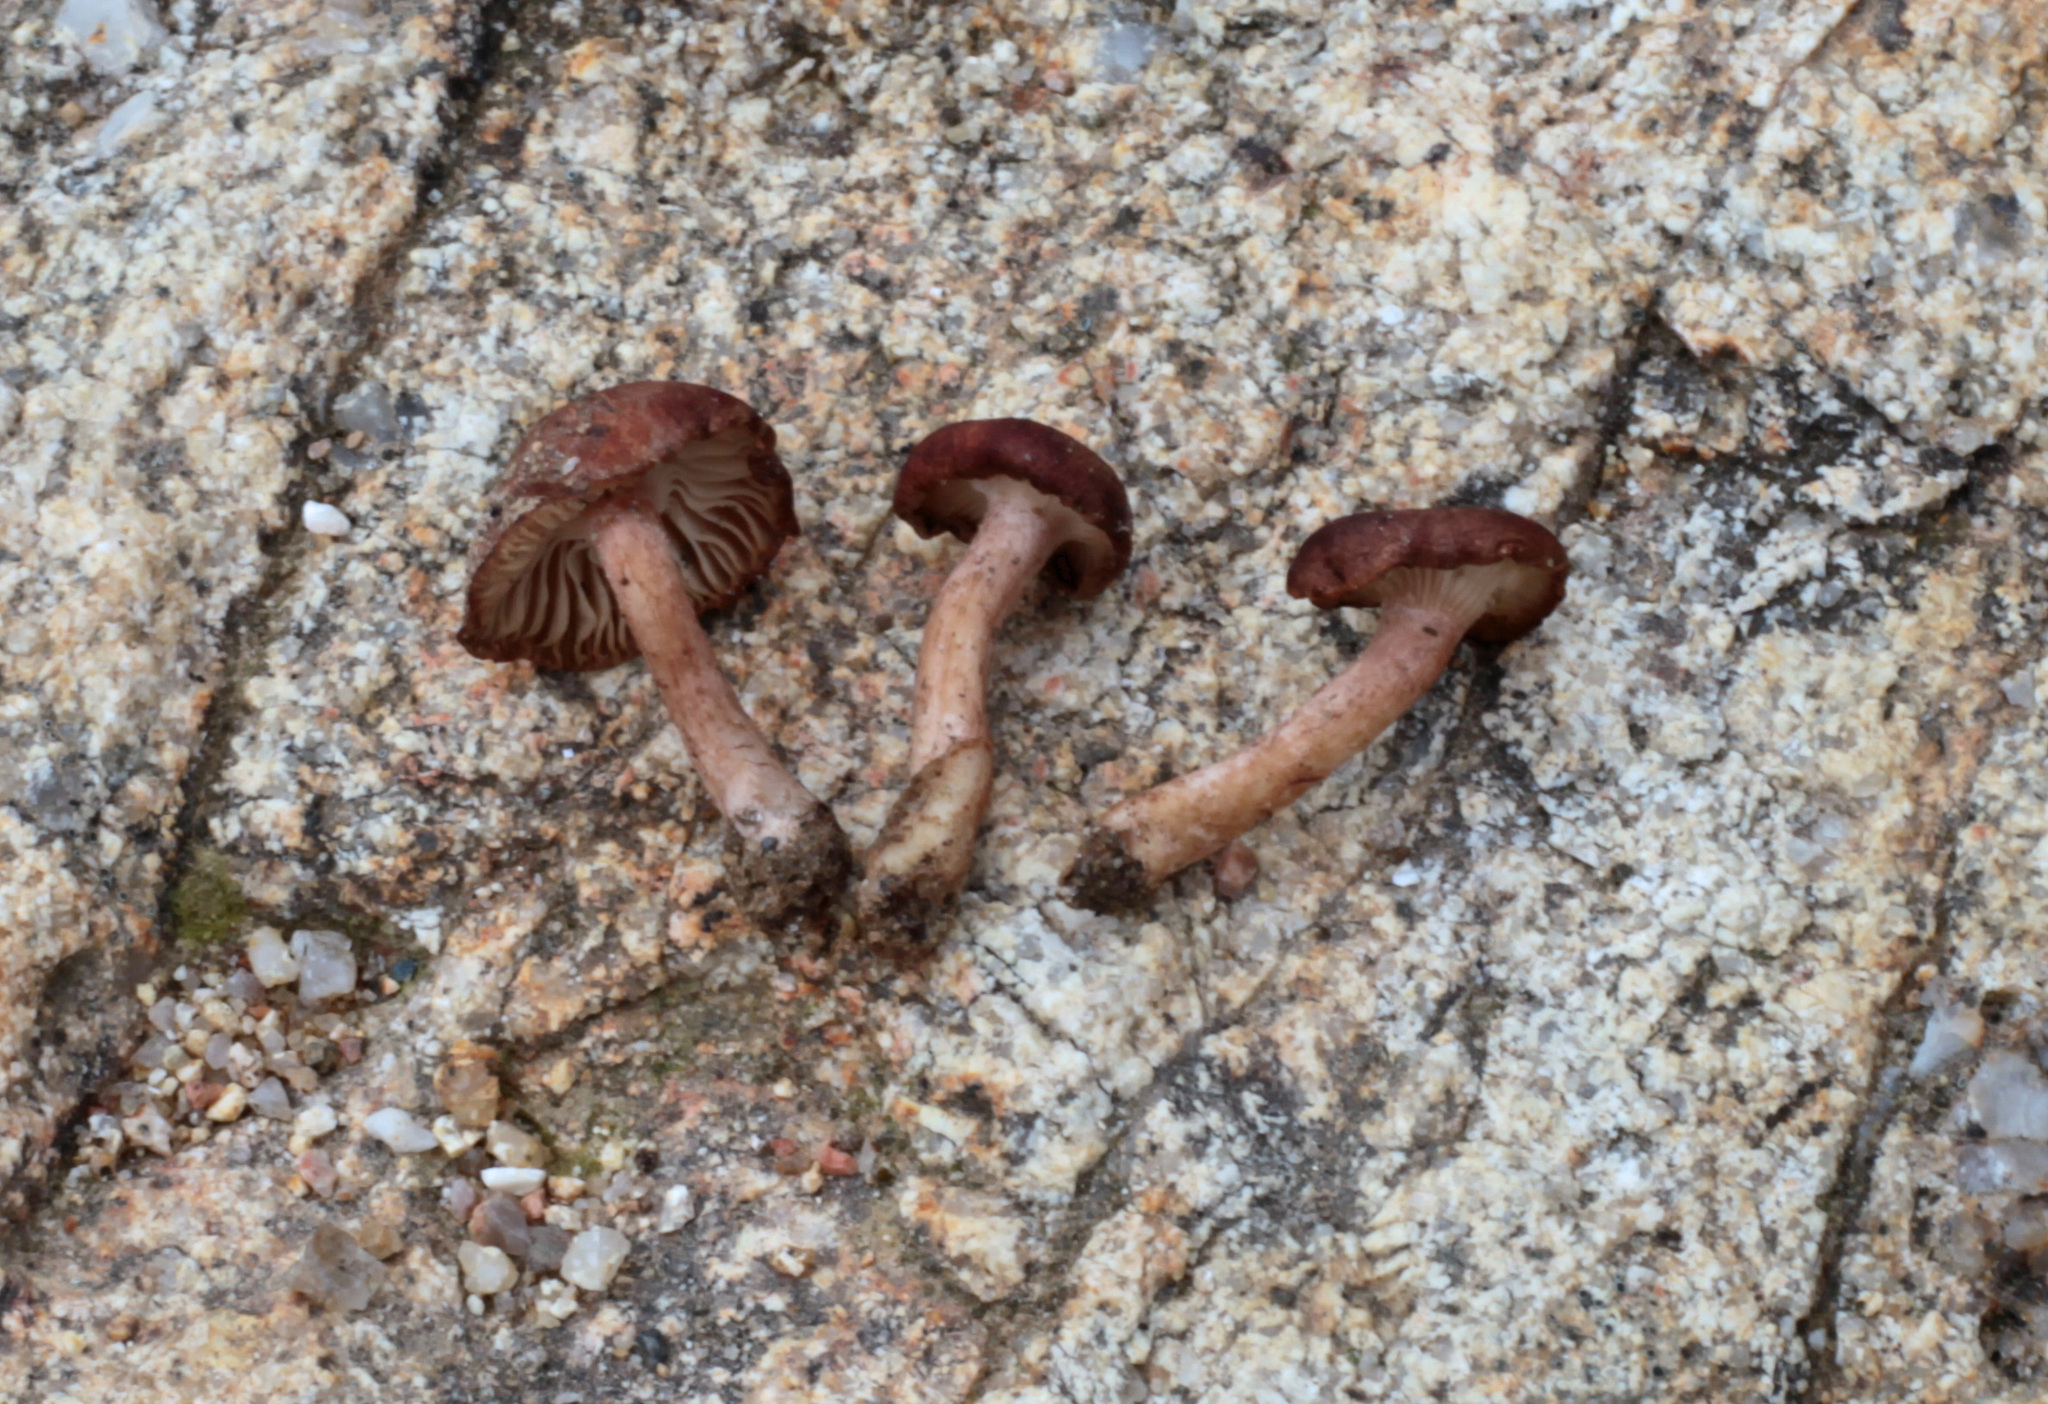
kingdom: Fungi
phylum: Basidiomycota
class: Agaricomycetes
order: Agaricales
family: Pseudoclitocybaceae
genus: Bonomyces
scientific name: Bonomyces afrosinopicus
